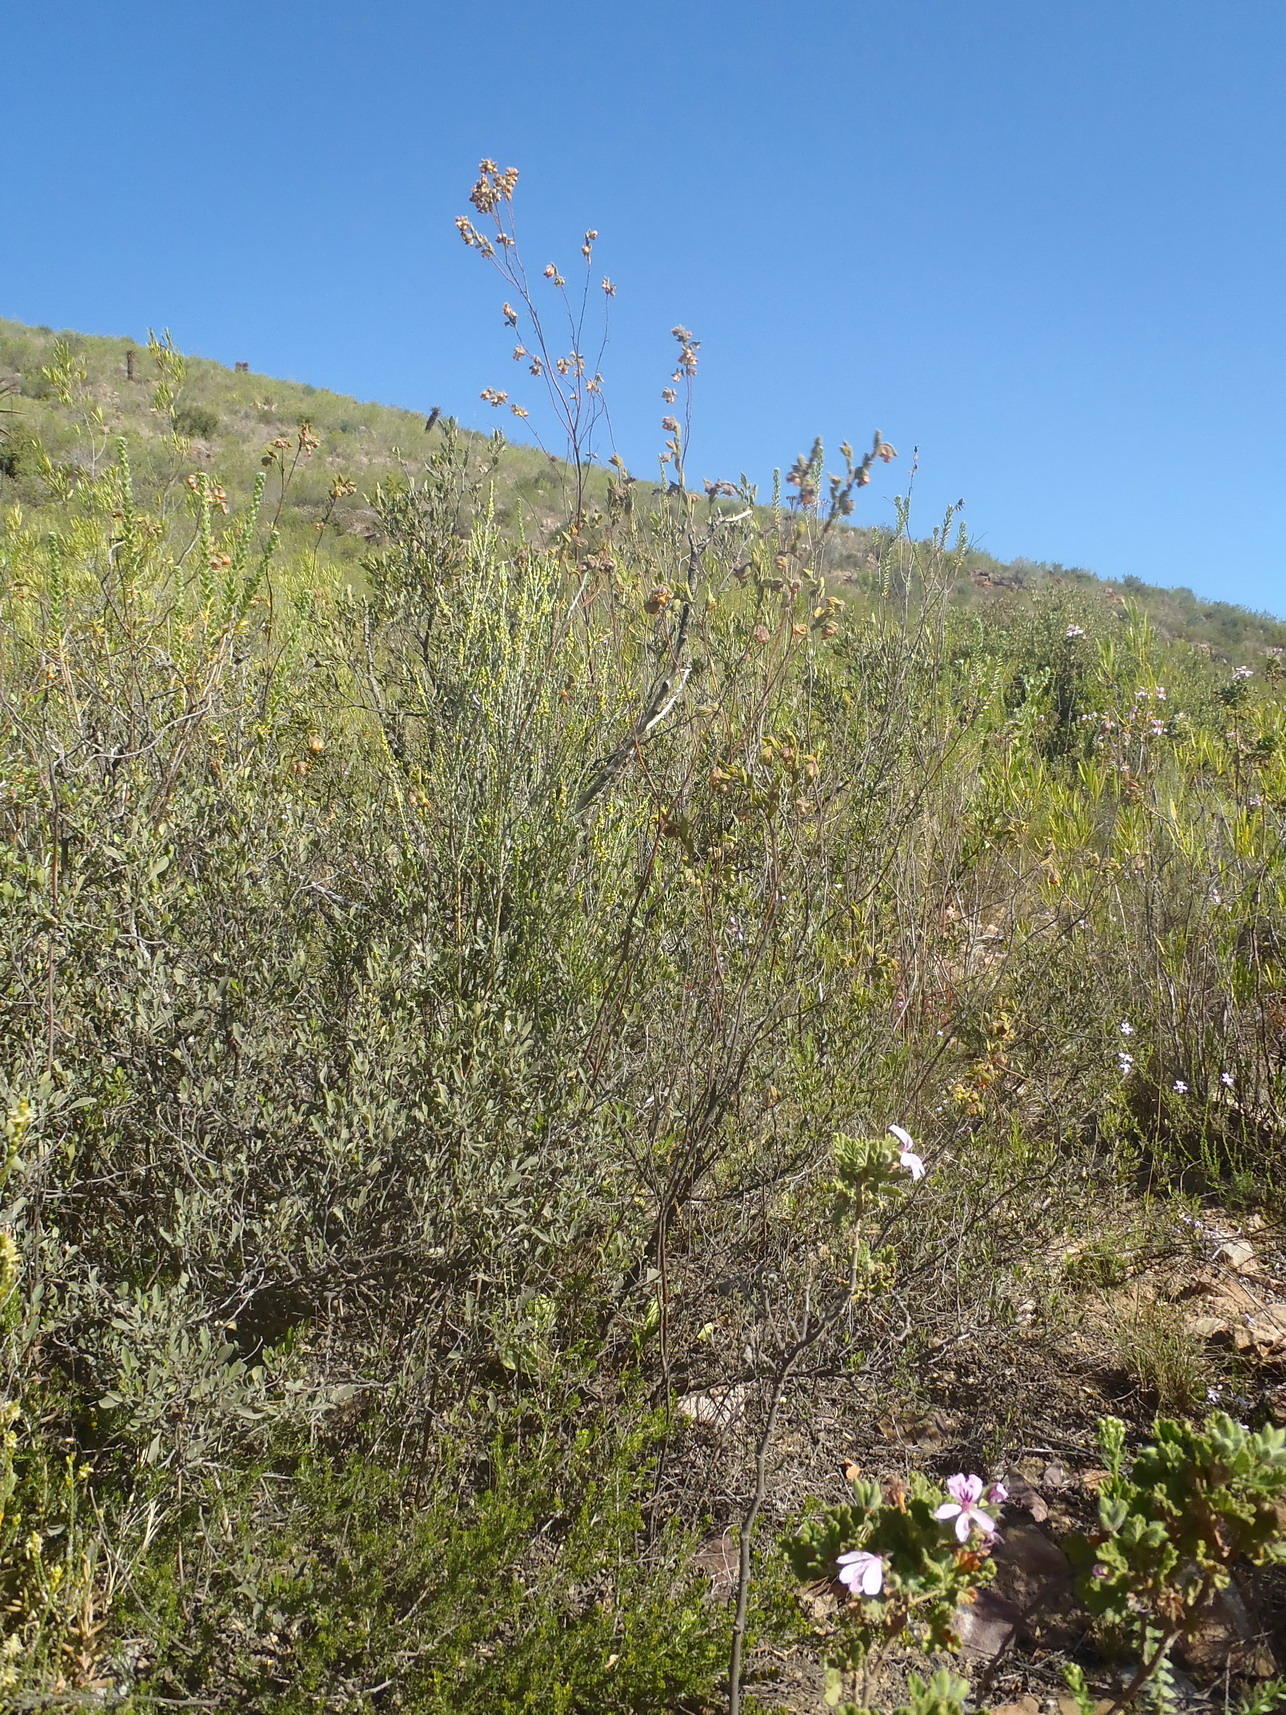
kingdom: Plantae
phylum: Tracheophyta
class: Magnoliopsida
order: Malvales
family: Malvaceae
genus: Hermannia
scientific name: Hermannia salviifolia
